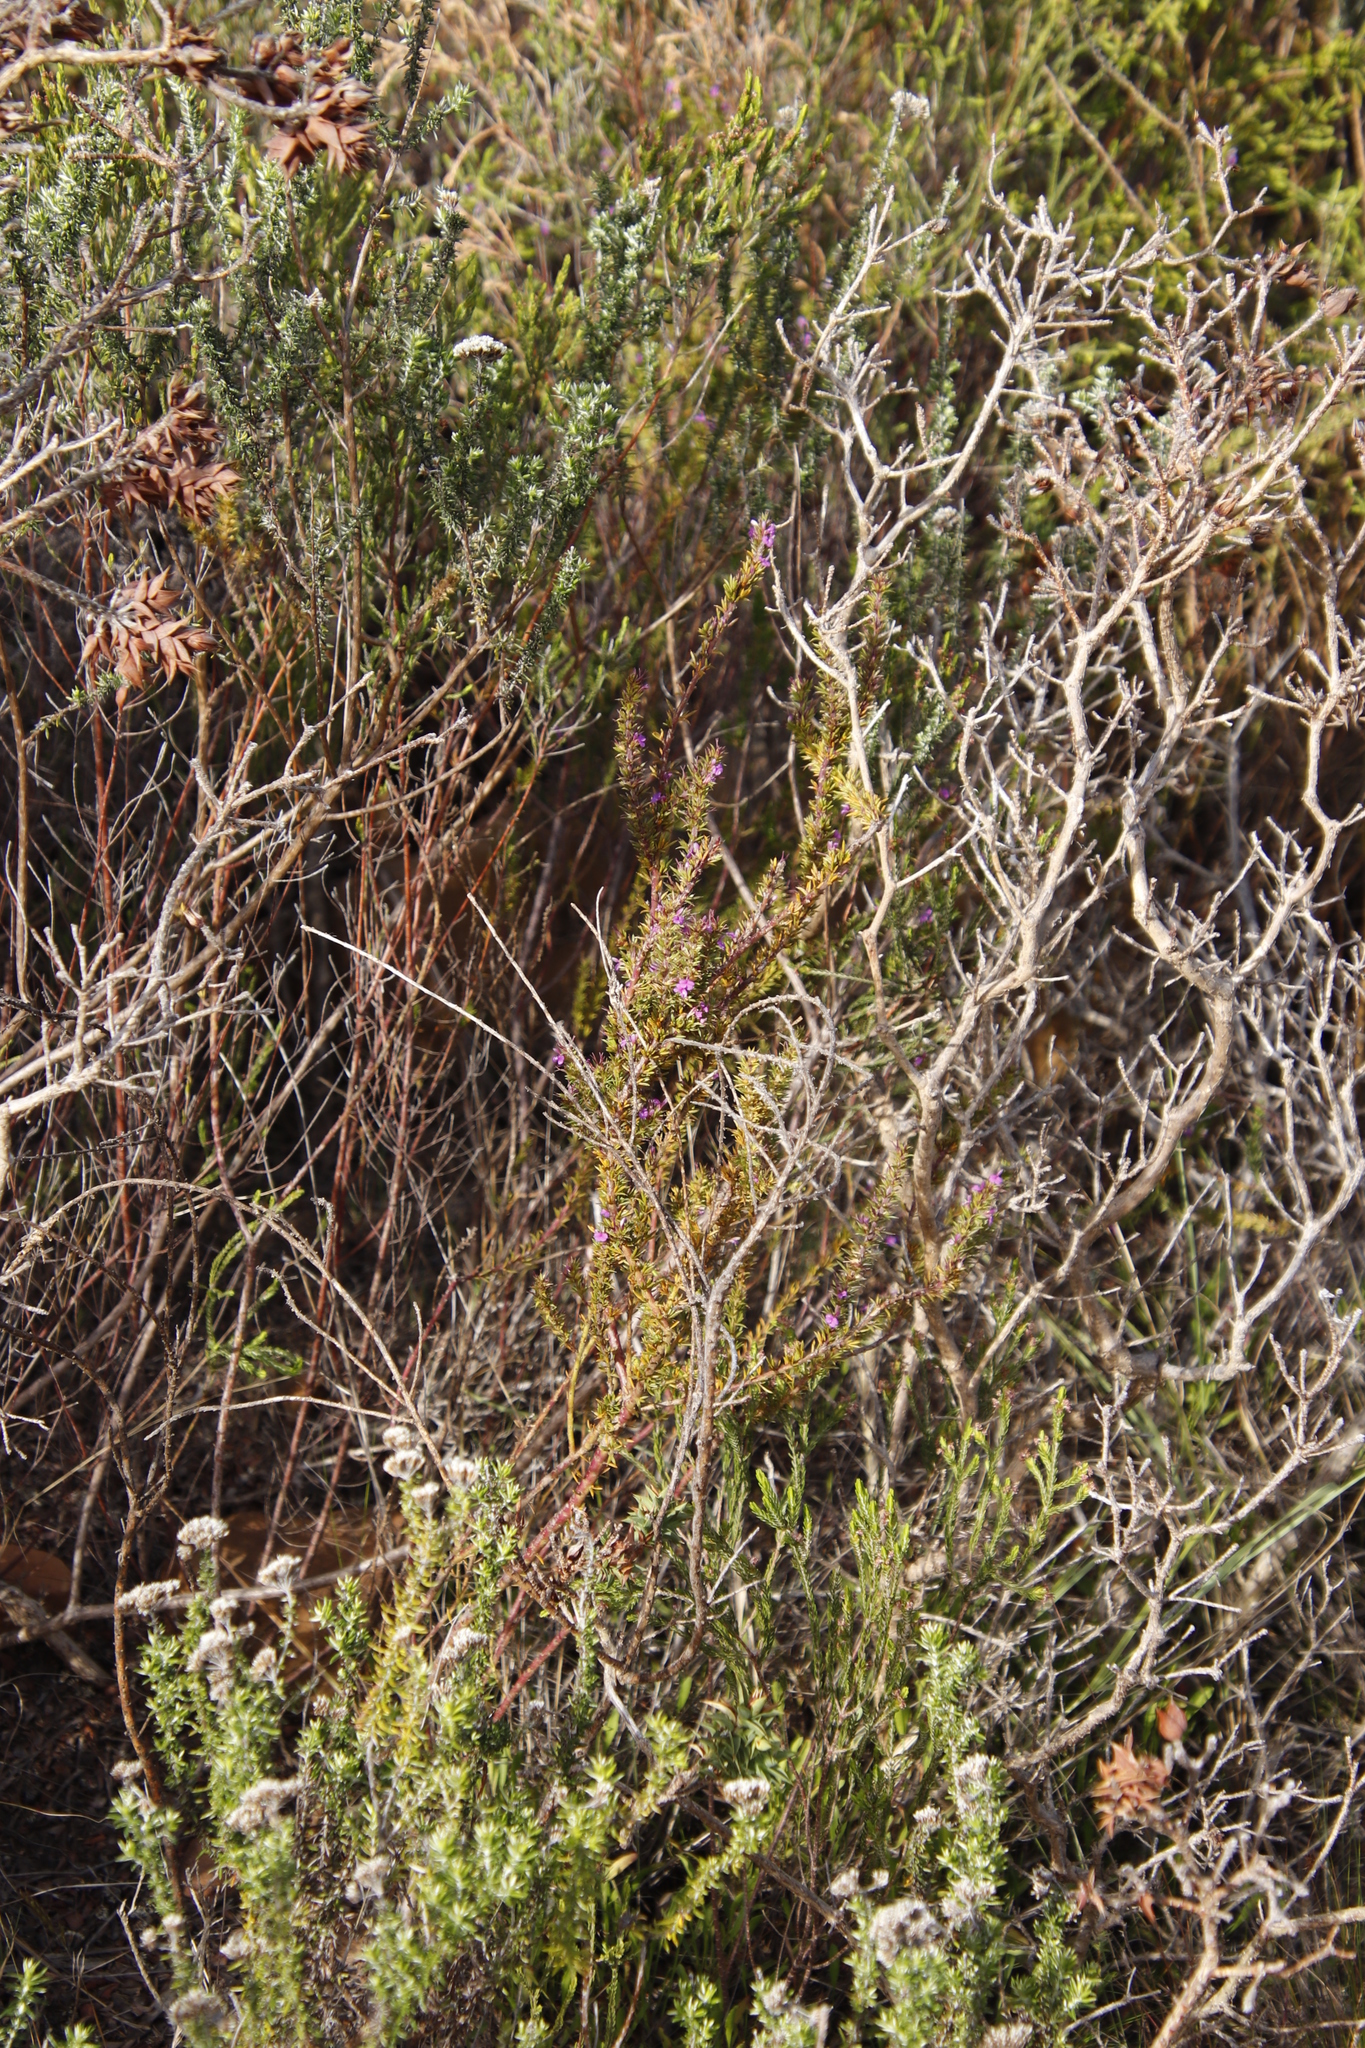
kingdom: Plantae
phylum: Tracheophyta
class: Magnoliopsida
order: Fabales
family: Polygalaceae
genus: Muraltia
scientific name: Muraltia heisteria
